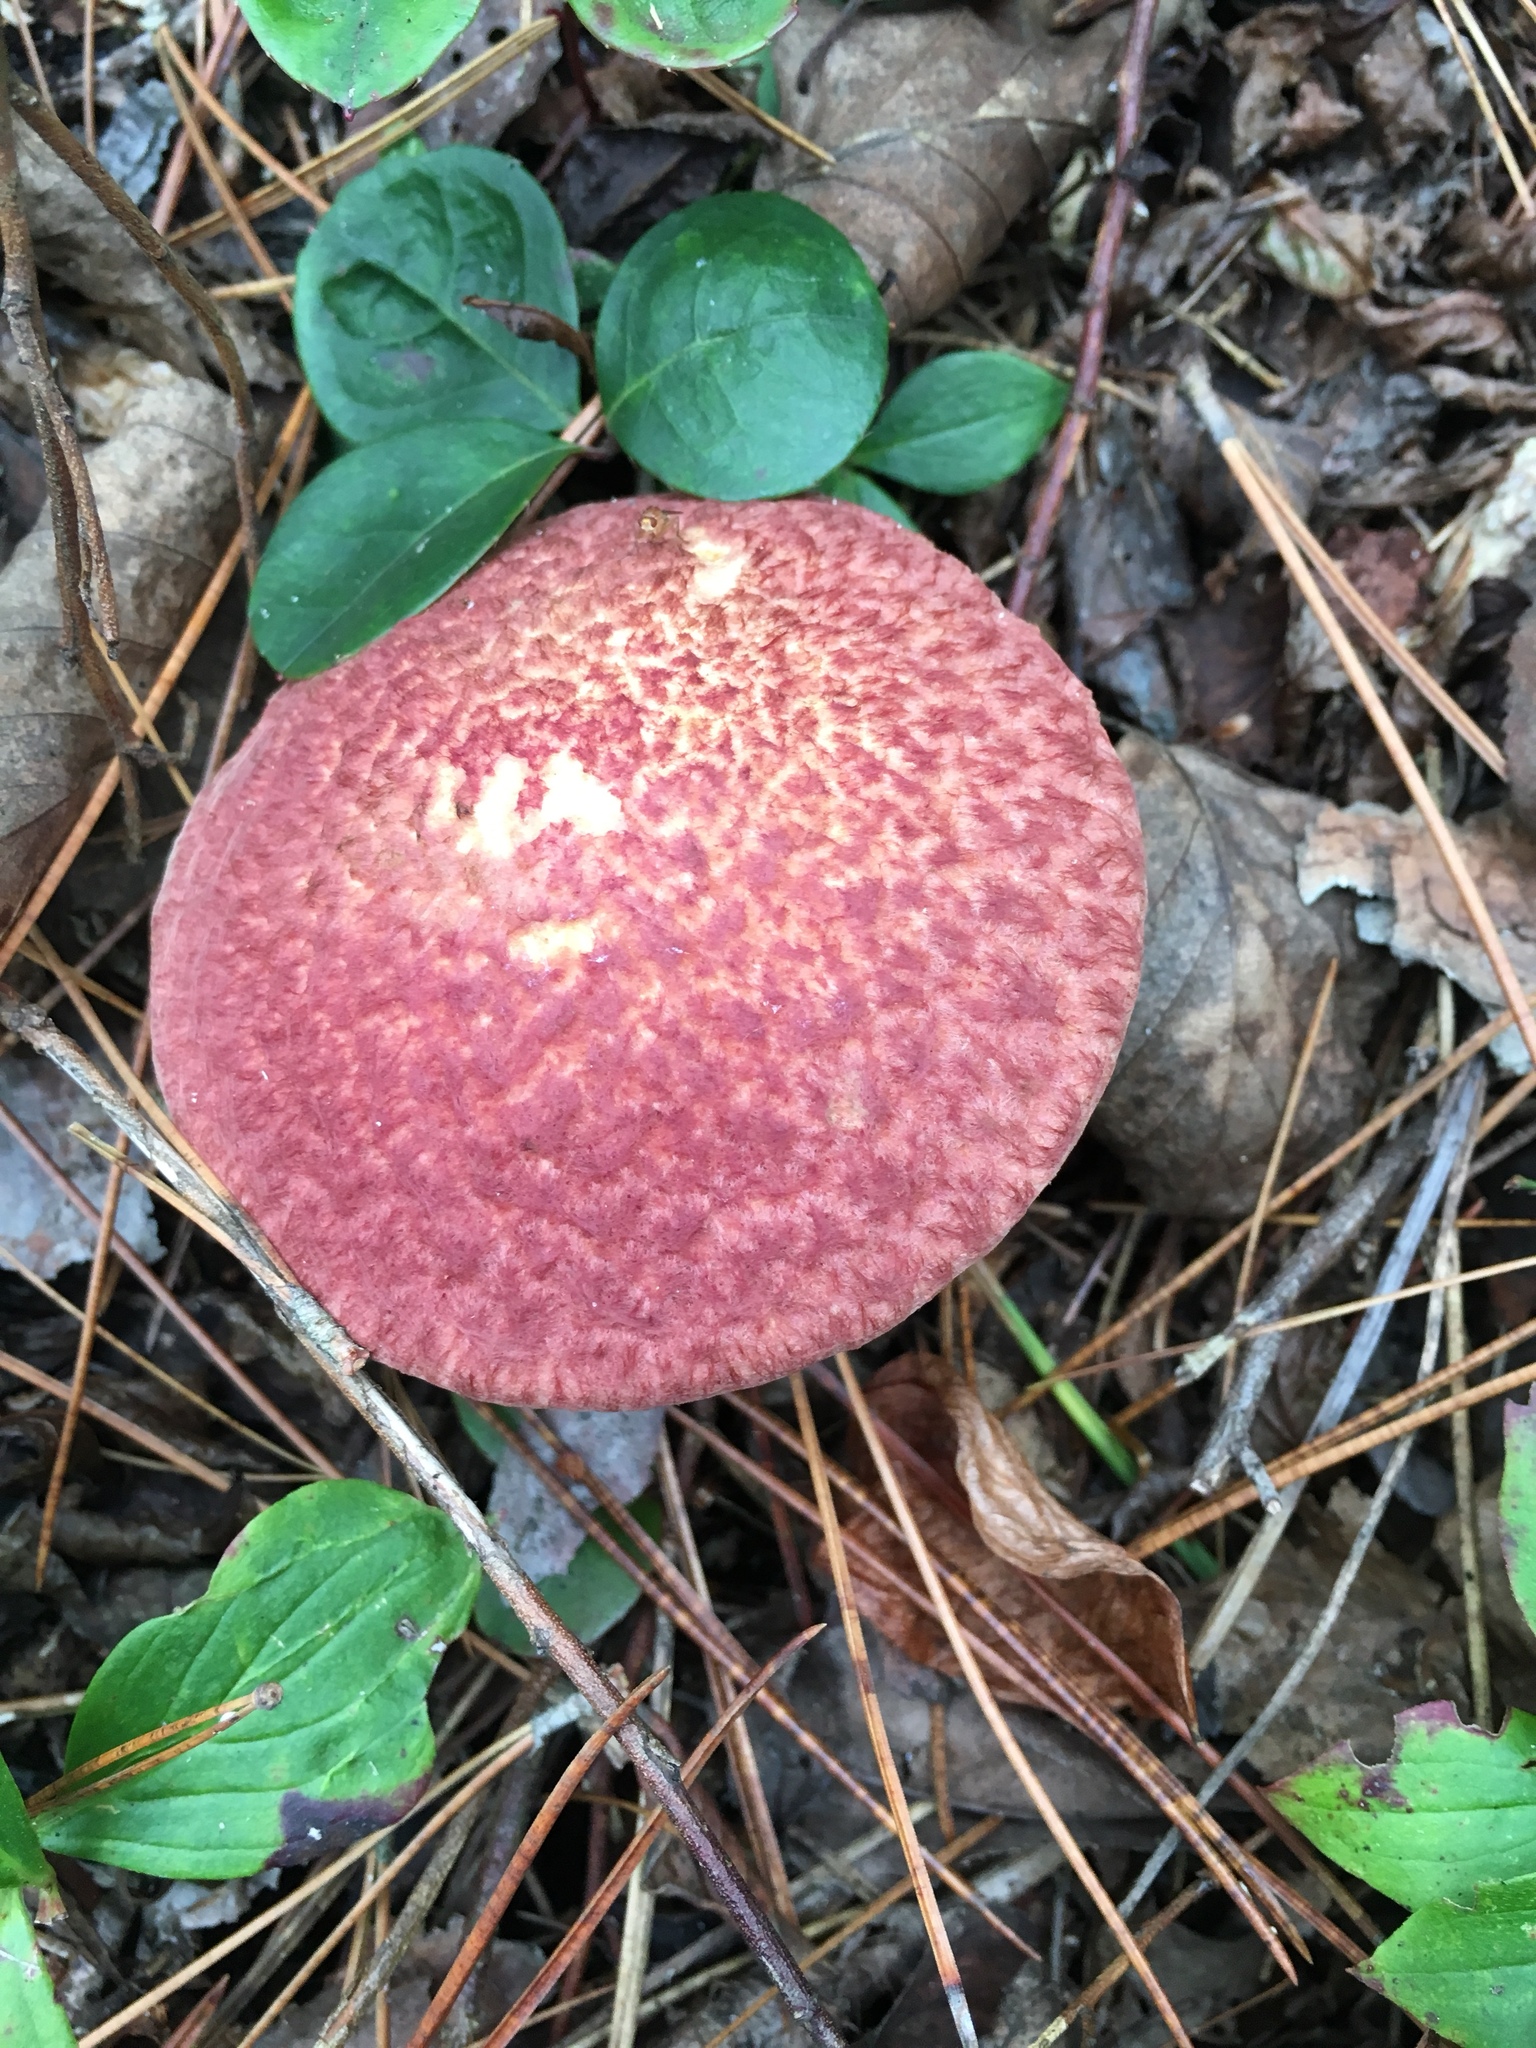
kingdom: Fungi
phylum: Basidiomycota
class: Agaricomycetes
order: Boletales
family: Suillaceae
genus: Suillus
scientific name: Suillus spraguei
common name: Painted suillus
